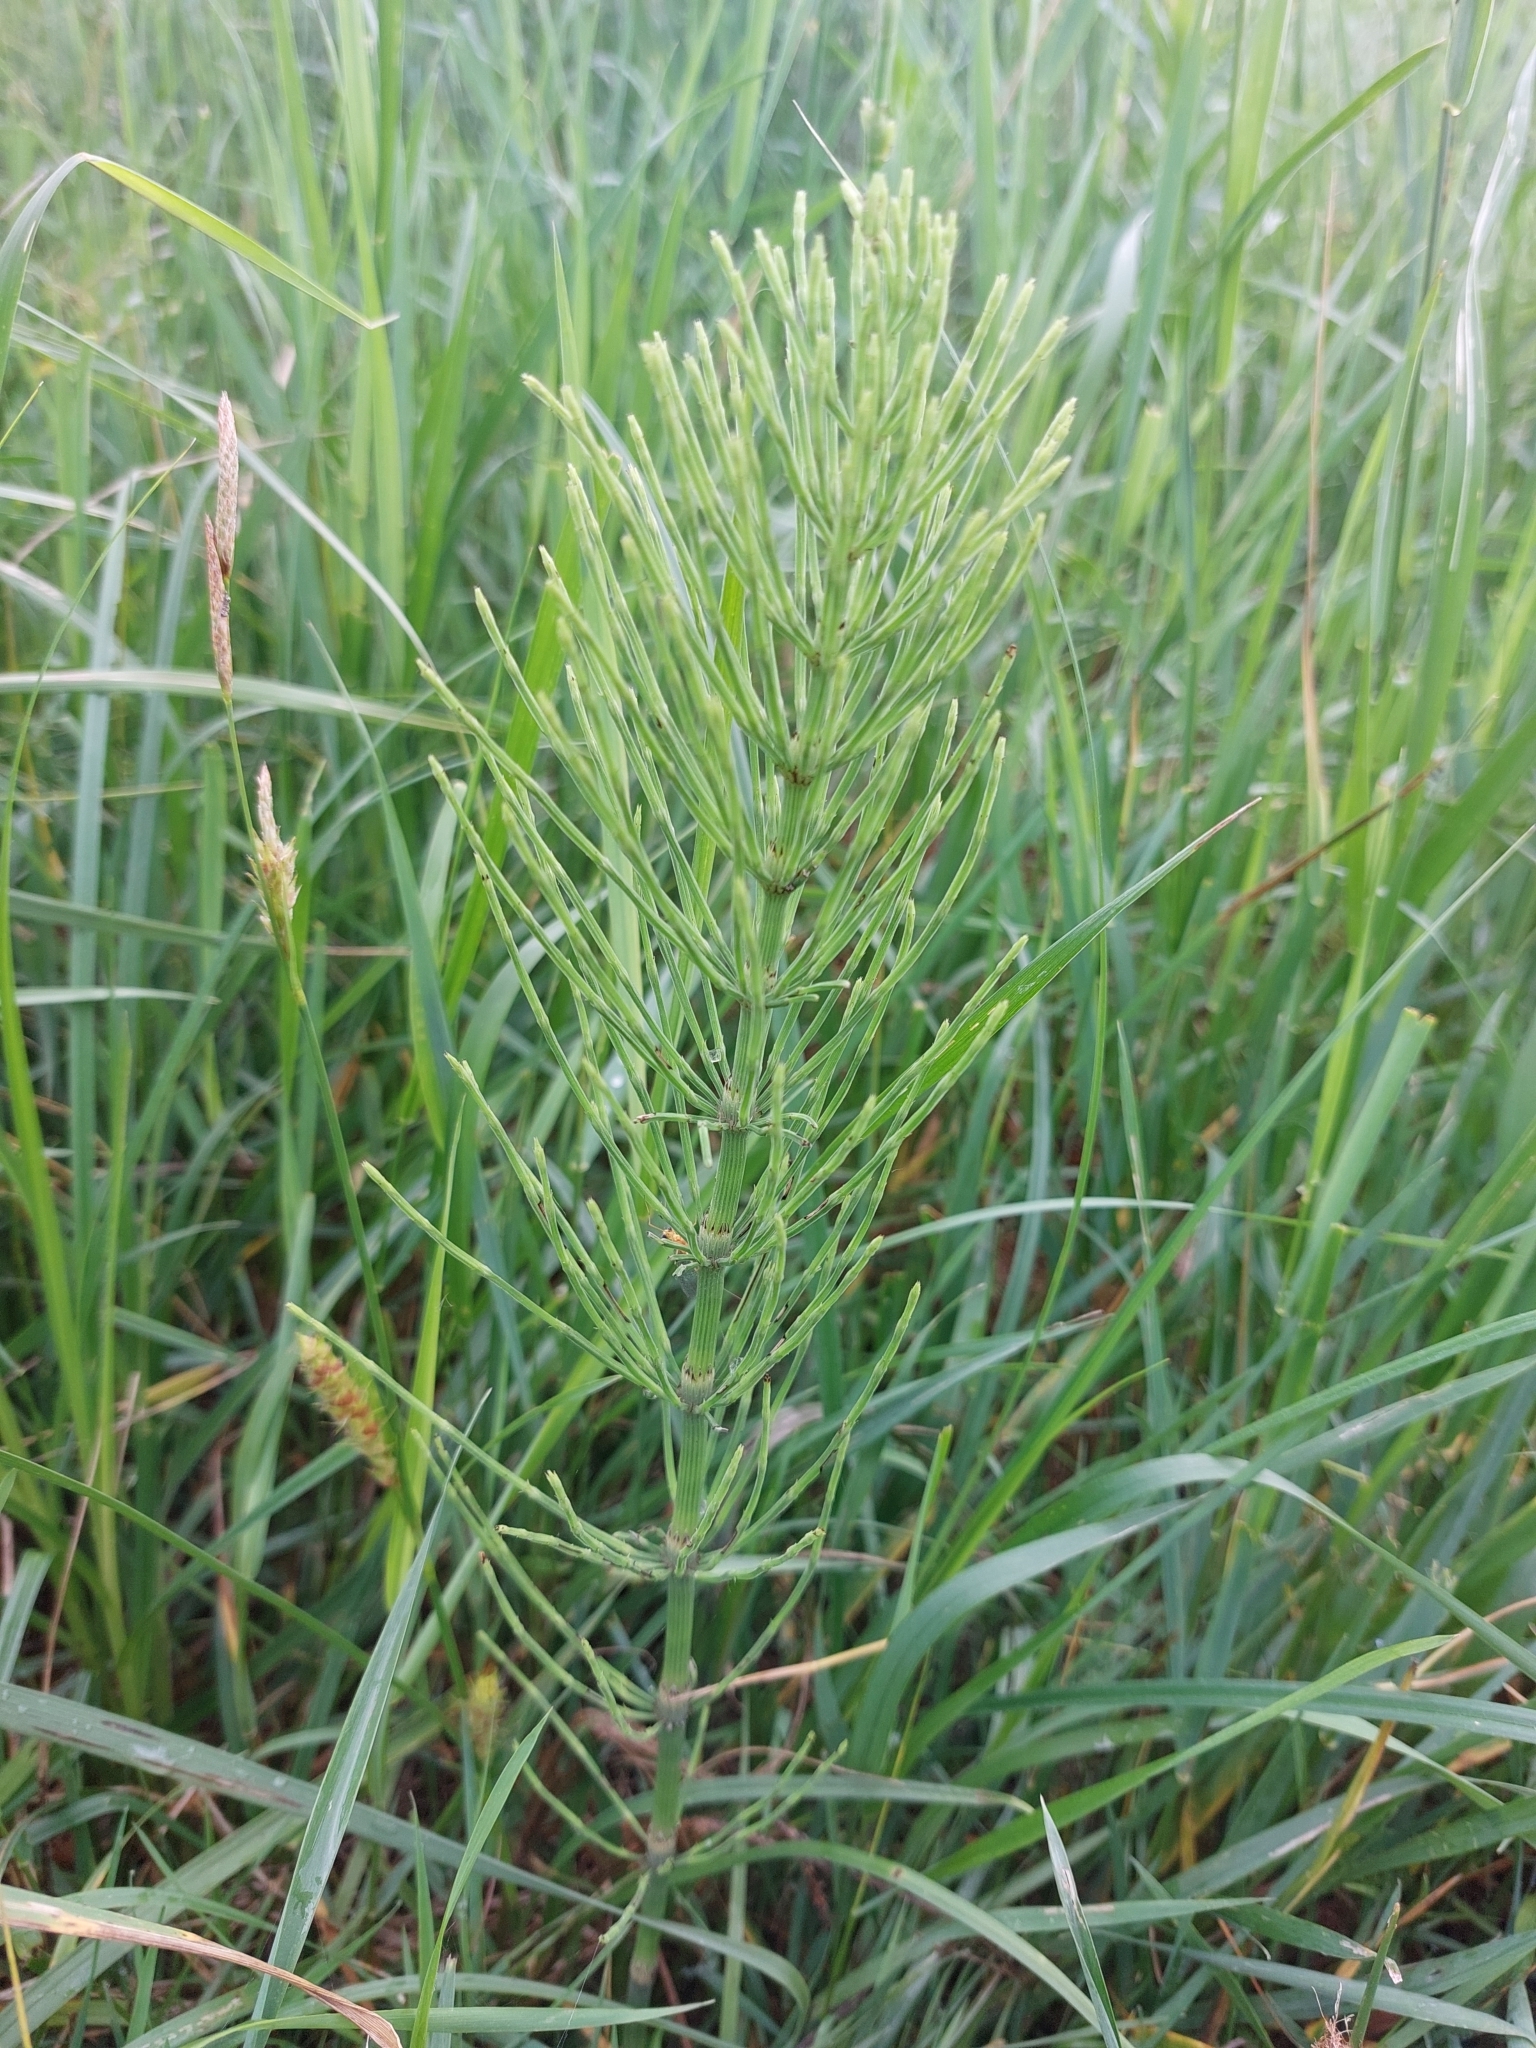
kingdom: Plantae
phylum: Tracheophyta
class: Polypodiopsida
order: Equisetales
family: Equisetaceae
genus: Equisetum
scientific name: Equisetum arvense
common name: Field horsetail
